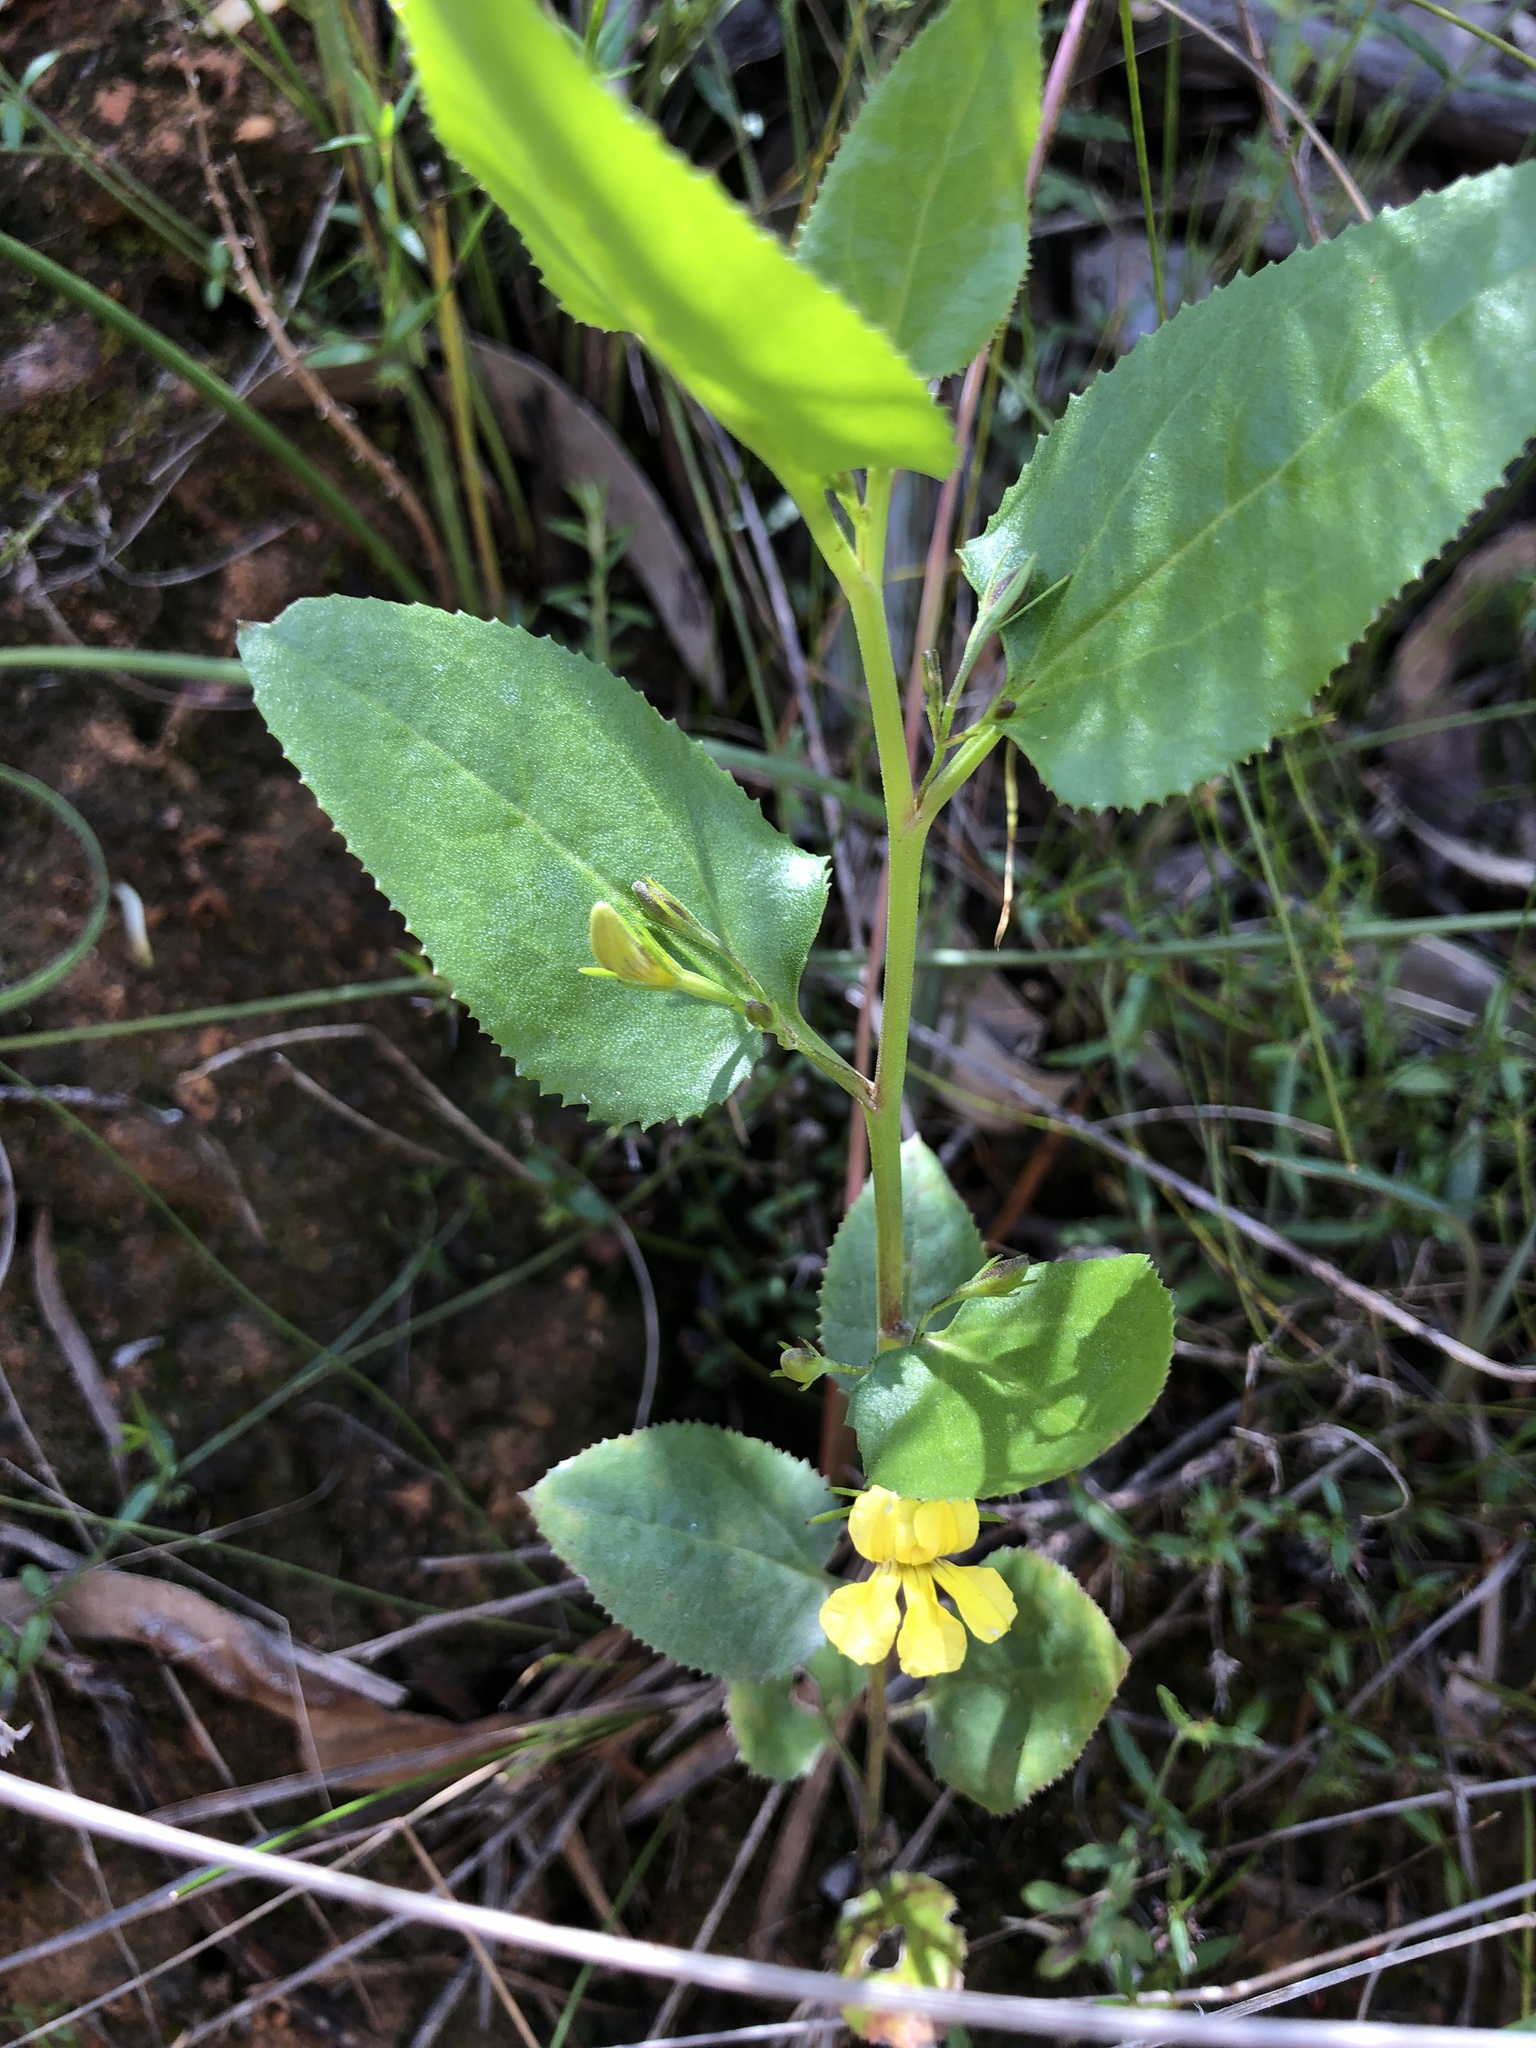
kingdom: Plantae
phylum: Tracheophyta
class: Magnoliopsida
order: Asterales
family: Goodeniaceae
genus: Goodenia
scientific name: Goodenia ovata
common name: Hop goodenia
